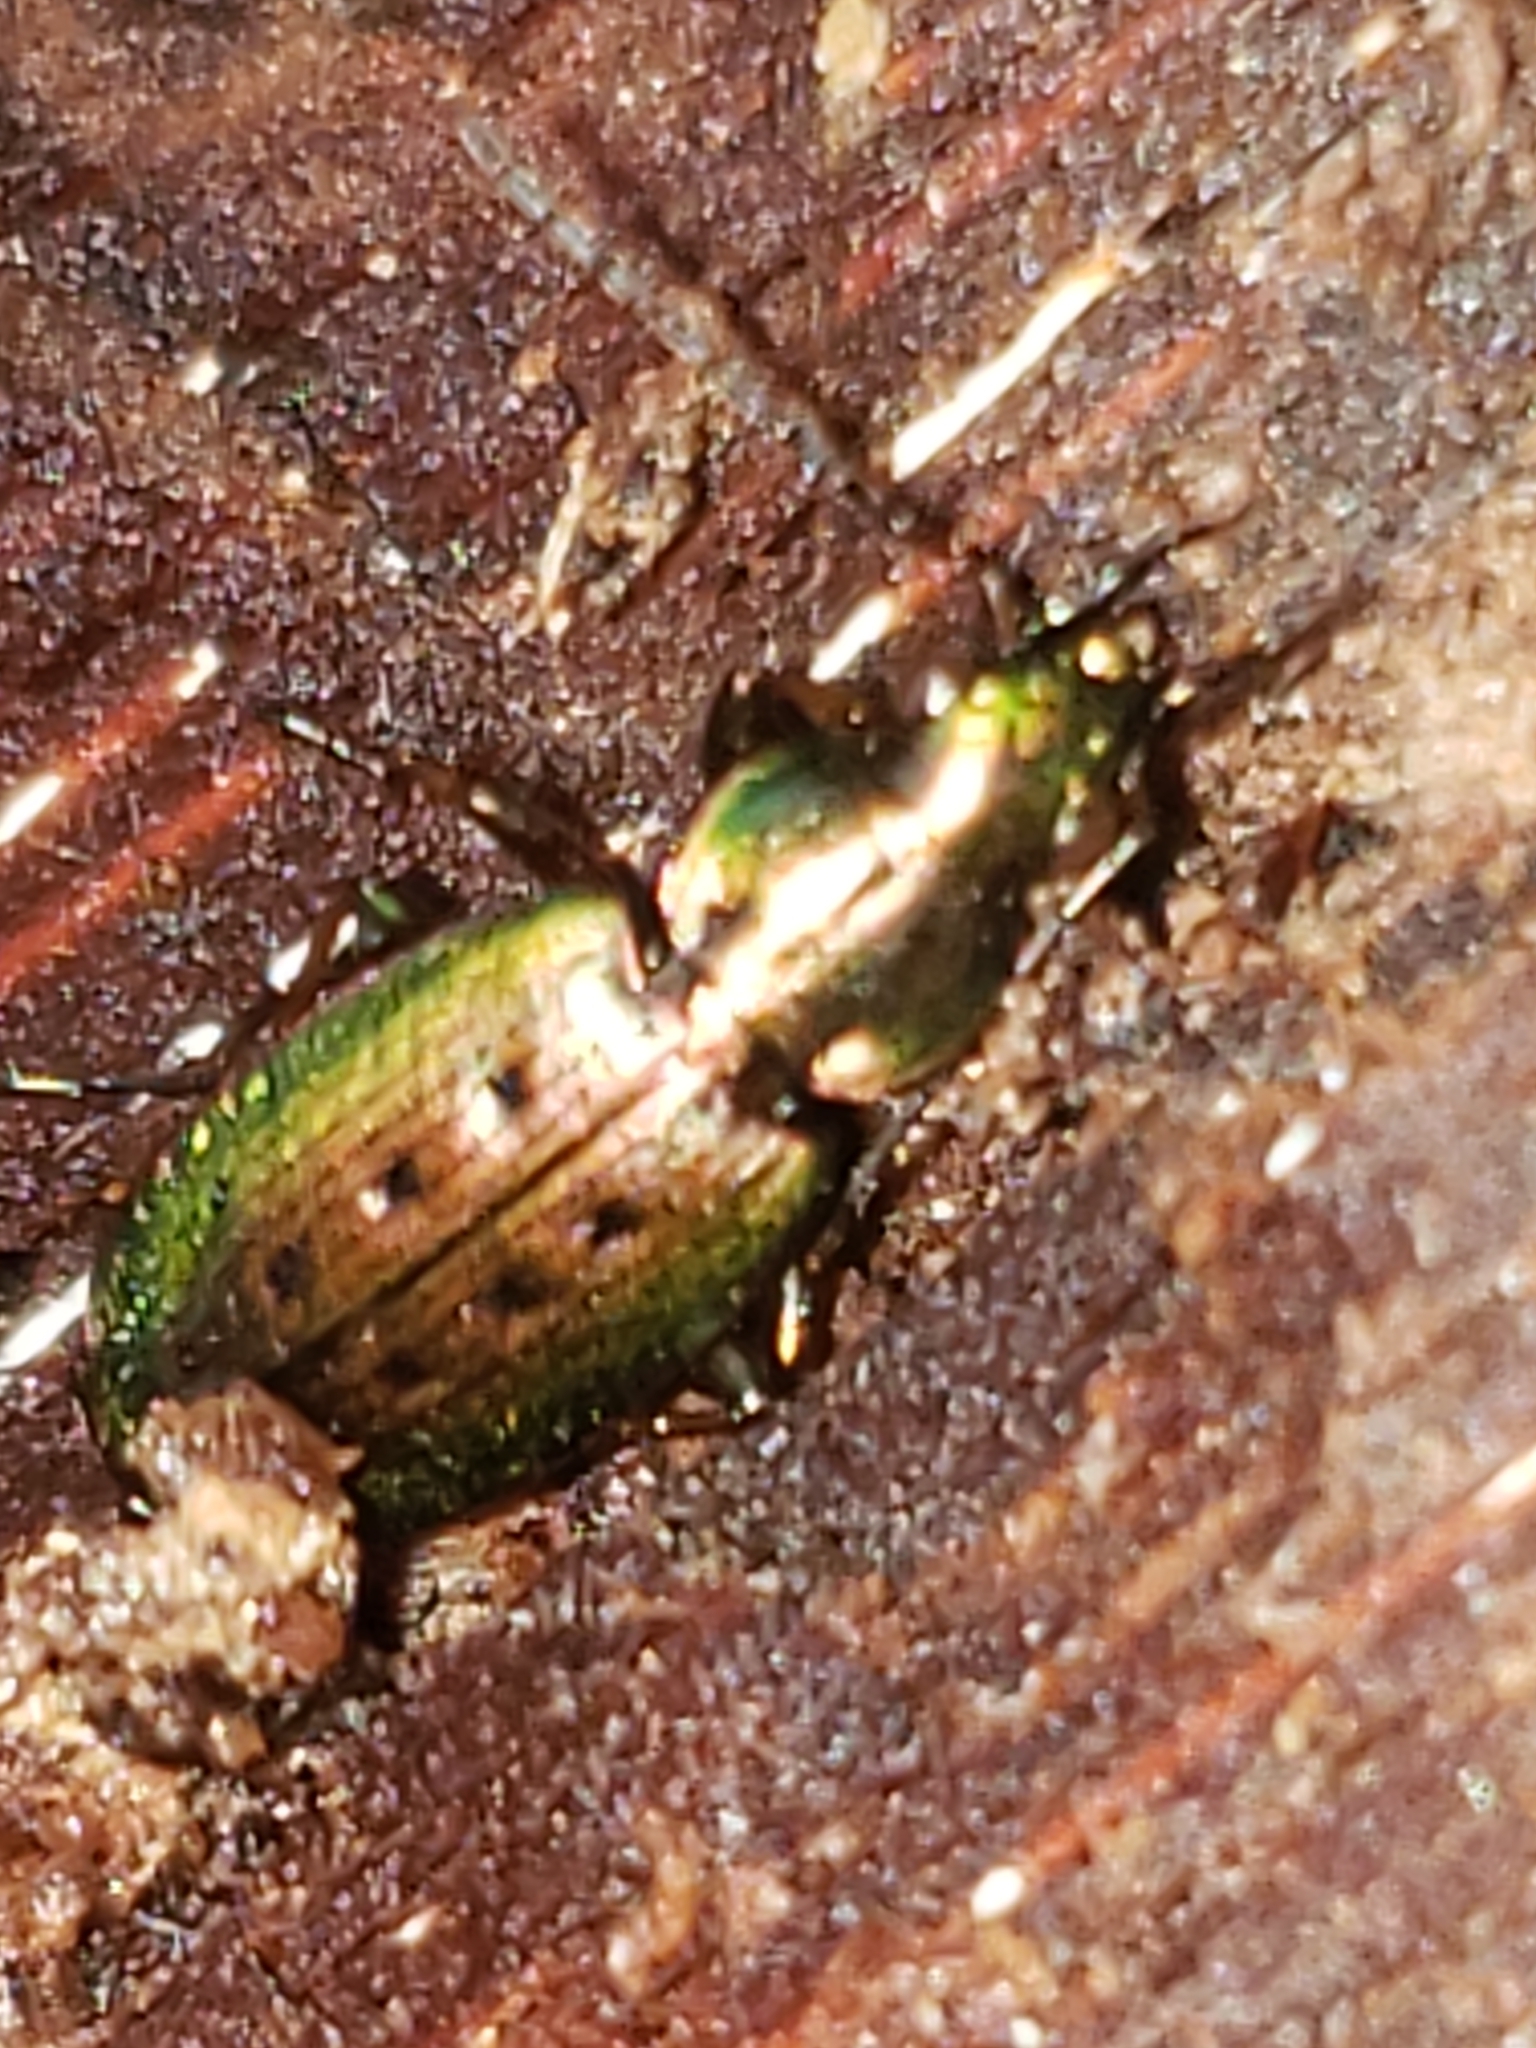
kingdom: Animalia
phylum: Arthropoda
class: Insecta
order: Coleoptera
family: Carabidae
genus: Agonum
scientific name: Agonum octopunctatum
